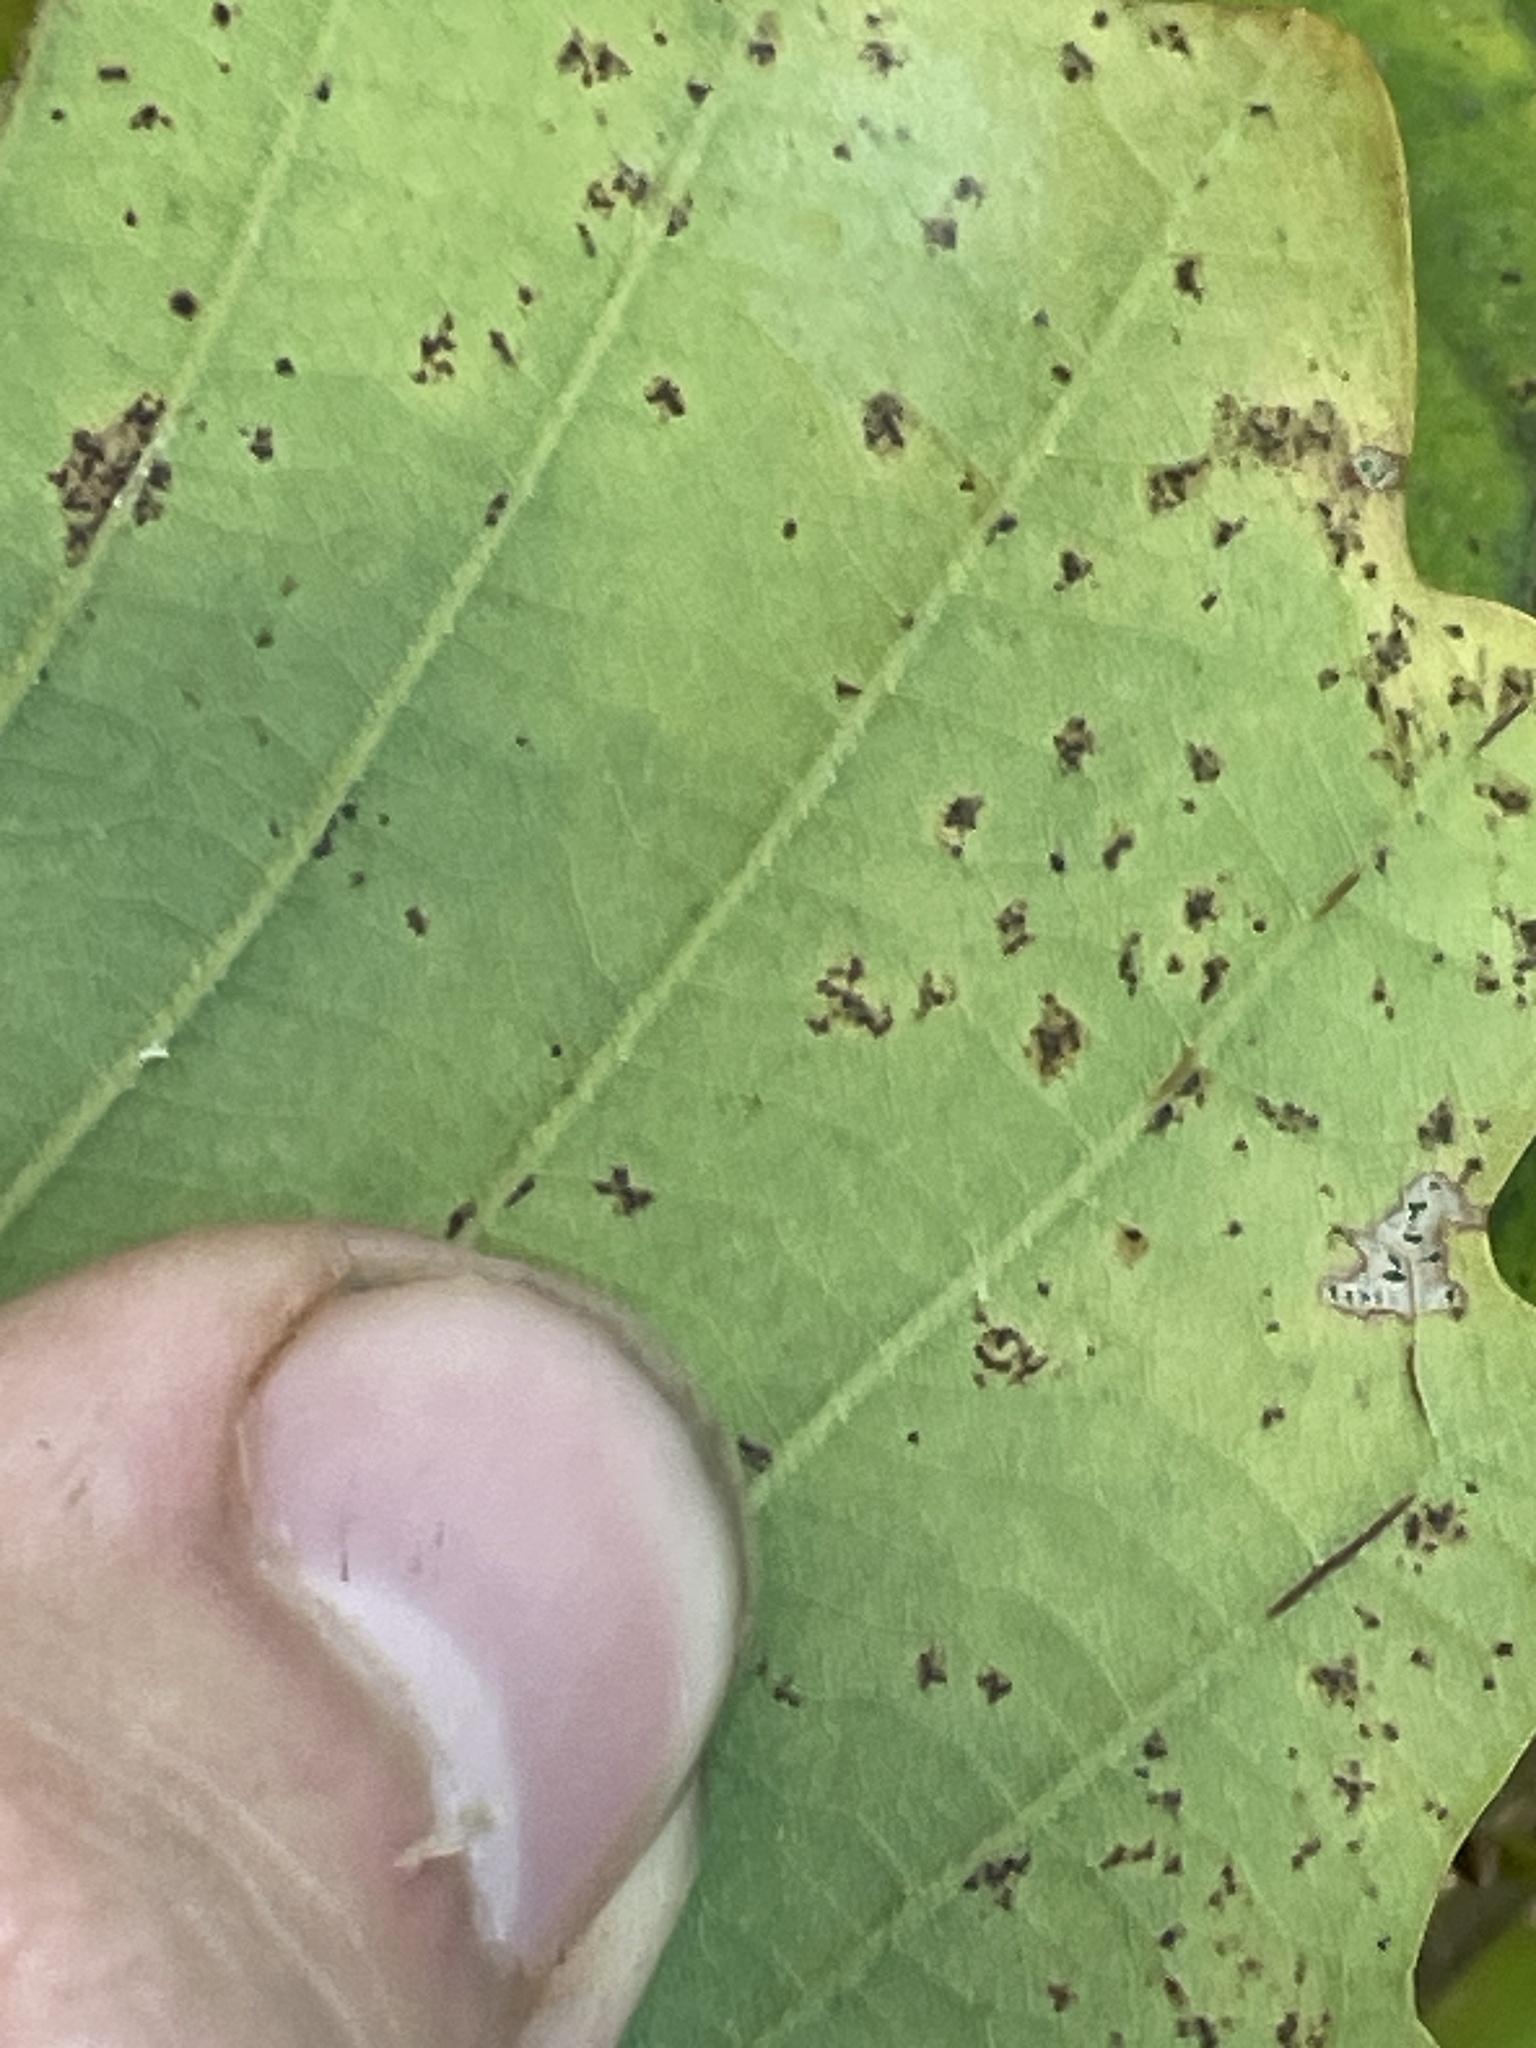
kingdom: Plantae
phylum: Tracheophyta
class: Magnoliopsida
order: Fagales
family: Fagaceae
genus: Quercus
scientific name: Quercus montana
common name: Chestnut oak
